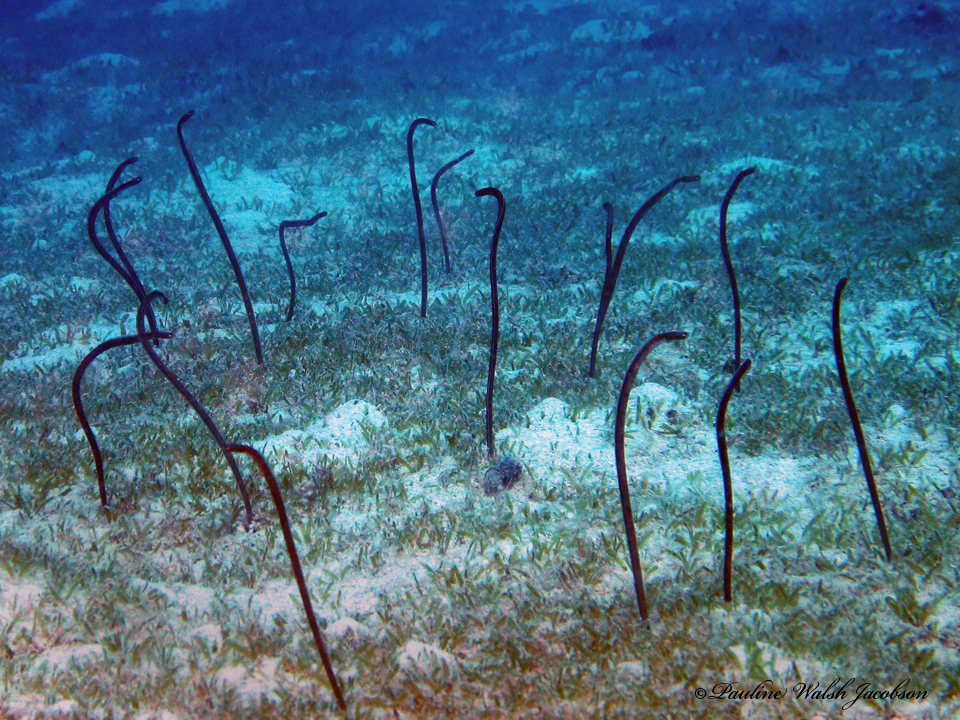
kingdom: Animalia
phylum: Chordata
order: Anguilliformes
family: Congridae
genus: Heteroconger
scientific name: Heteroconger longissimus
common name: Garden eel
